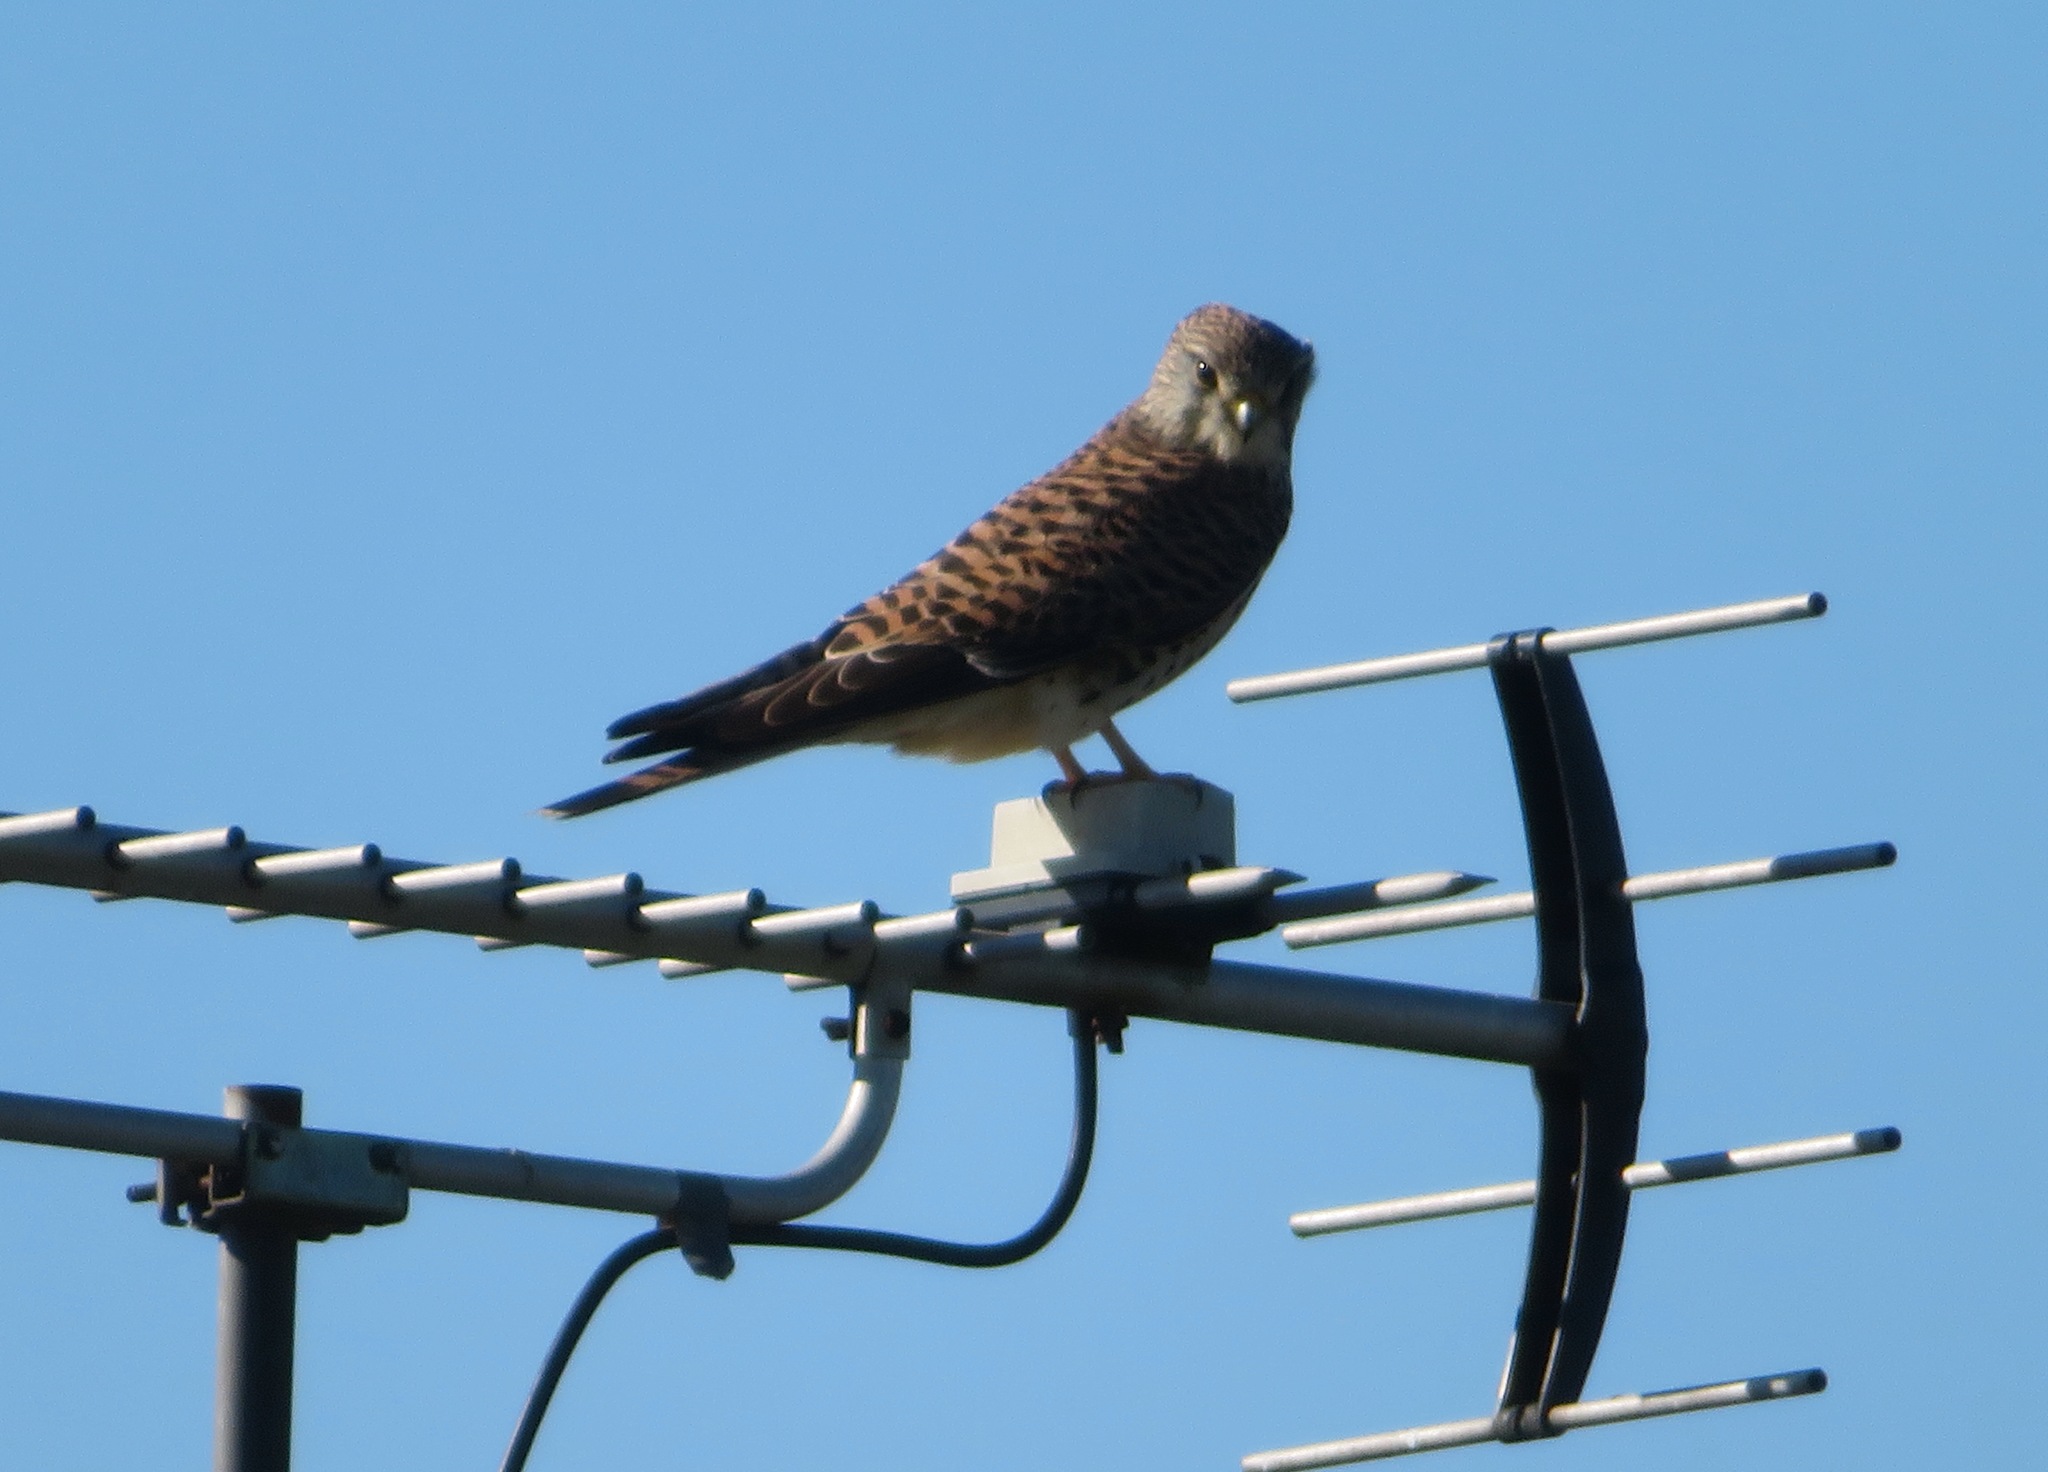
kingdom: Animalia
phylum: Chordata
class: Aves
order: Falconiformes
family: Falconidae
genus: Falco
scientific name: Falco tinnunculus
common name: Common kestrel
